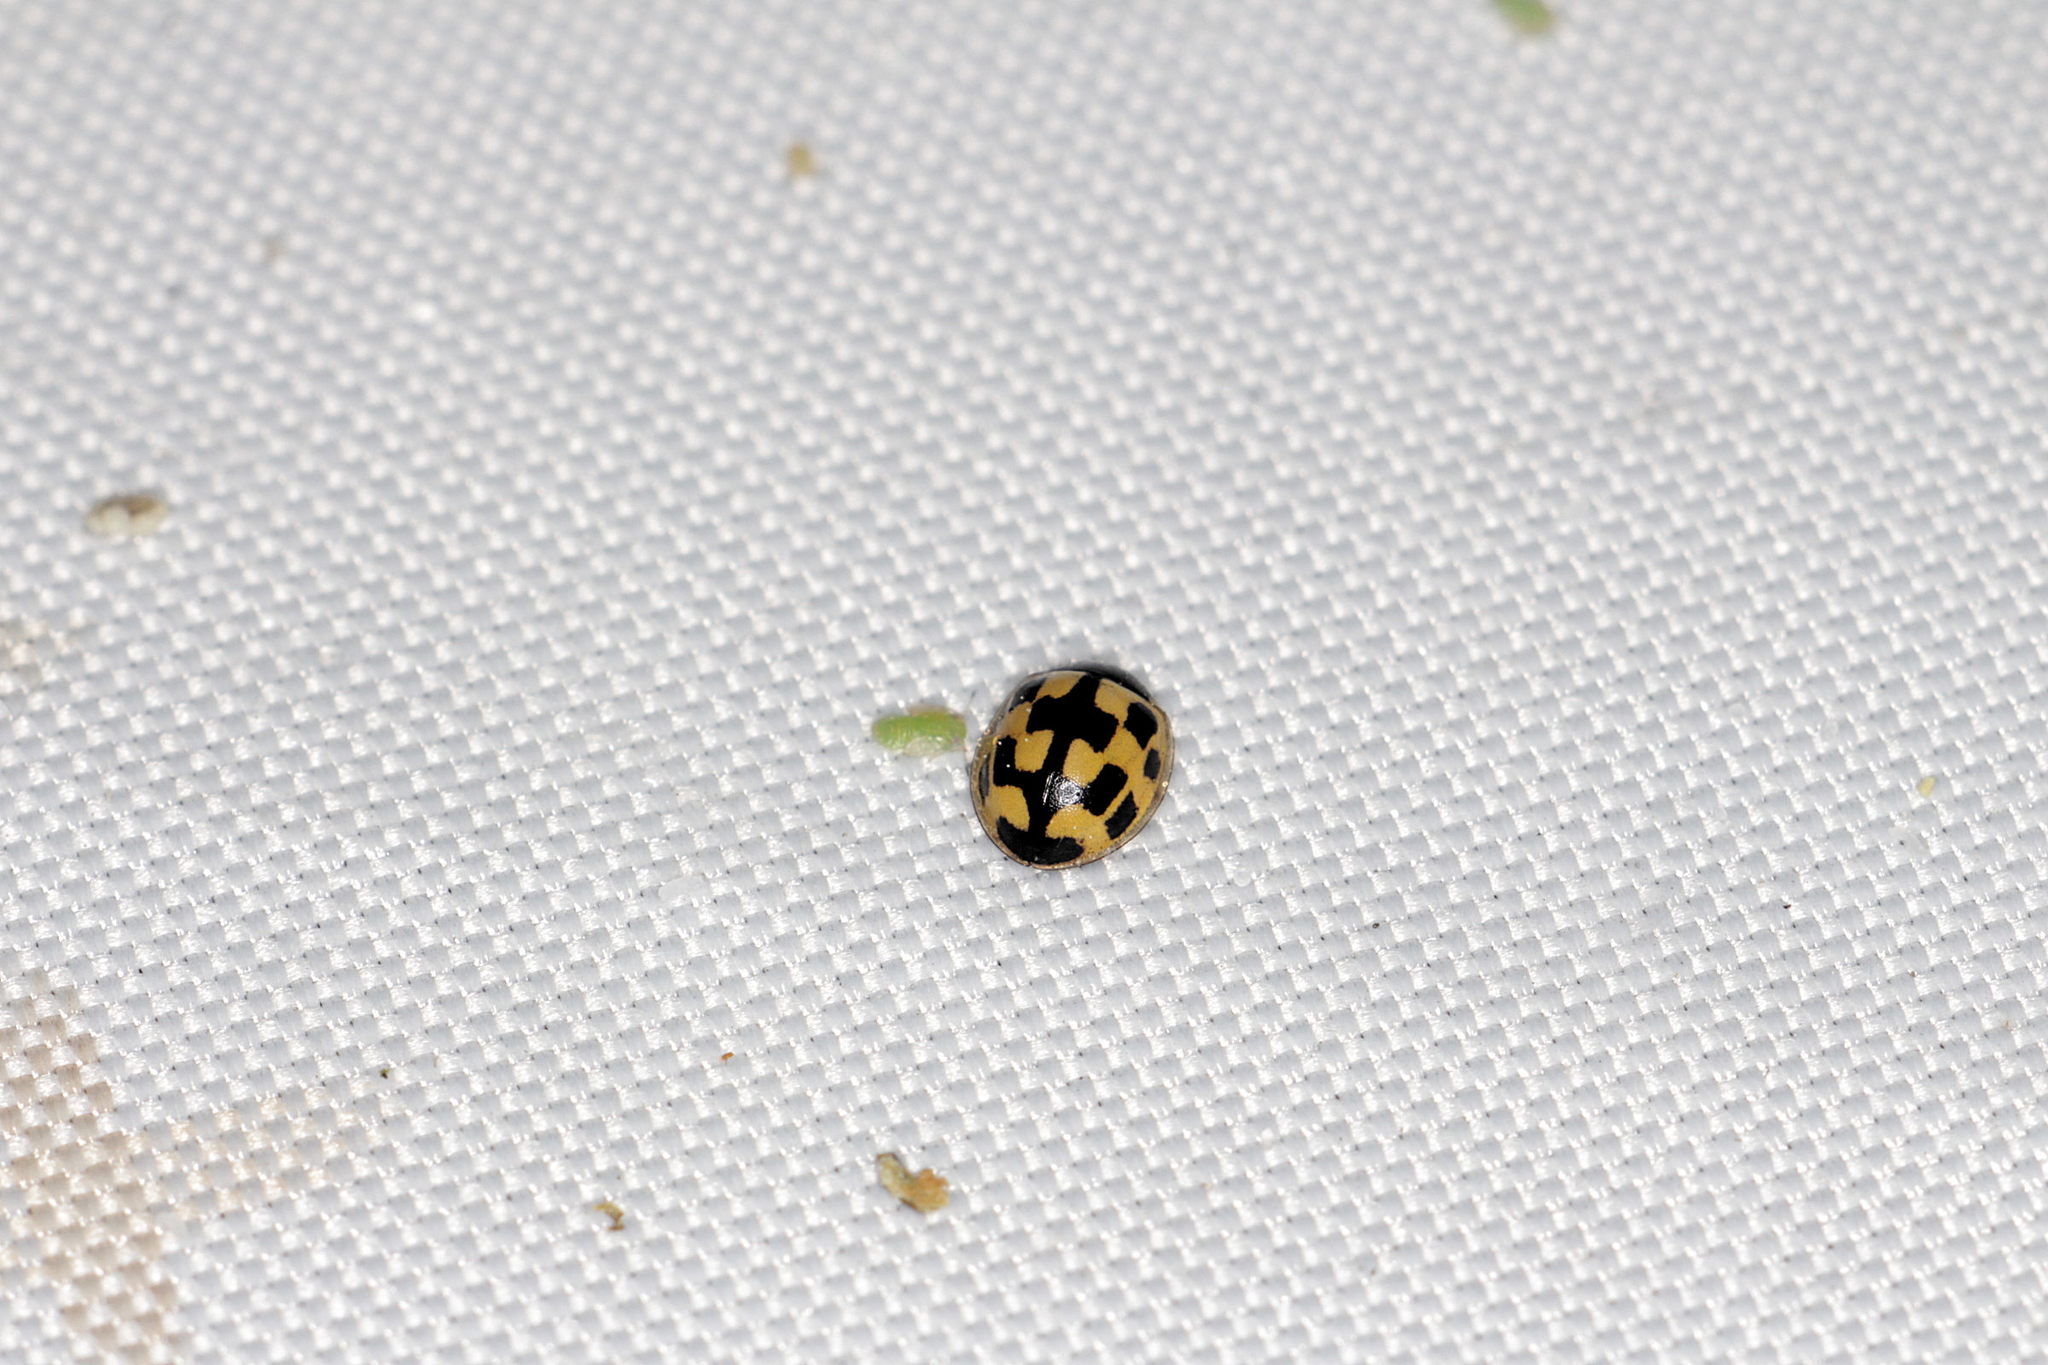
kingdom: Animalia
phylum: Arthropoda
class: Insecta
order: Coleoptera
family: Coccinellidae
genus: Propylaea
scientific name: Propylaea quatuordecimpunctata
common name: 14-spotted ladybird beetle
